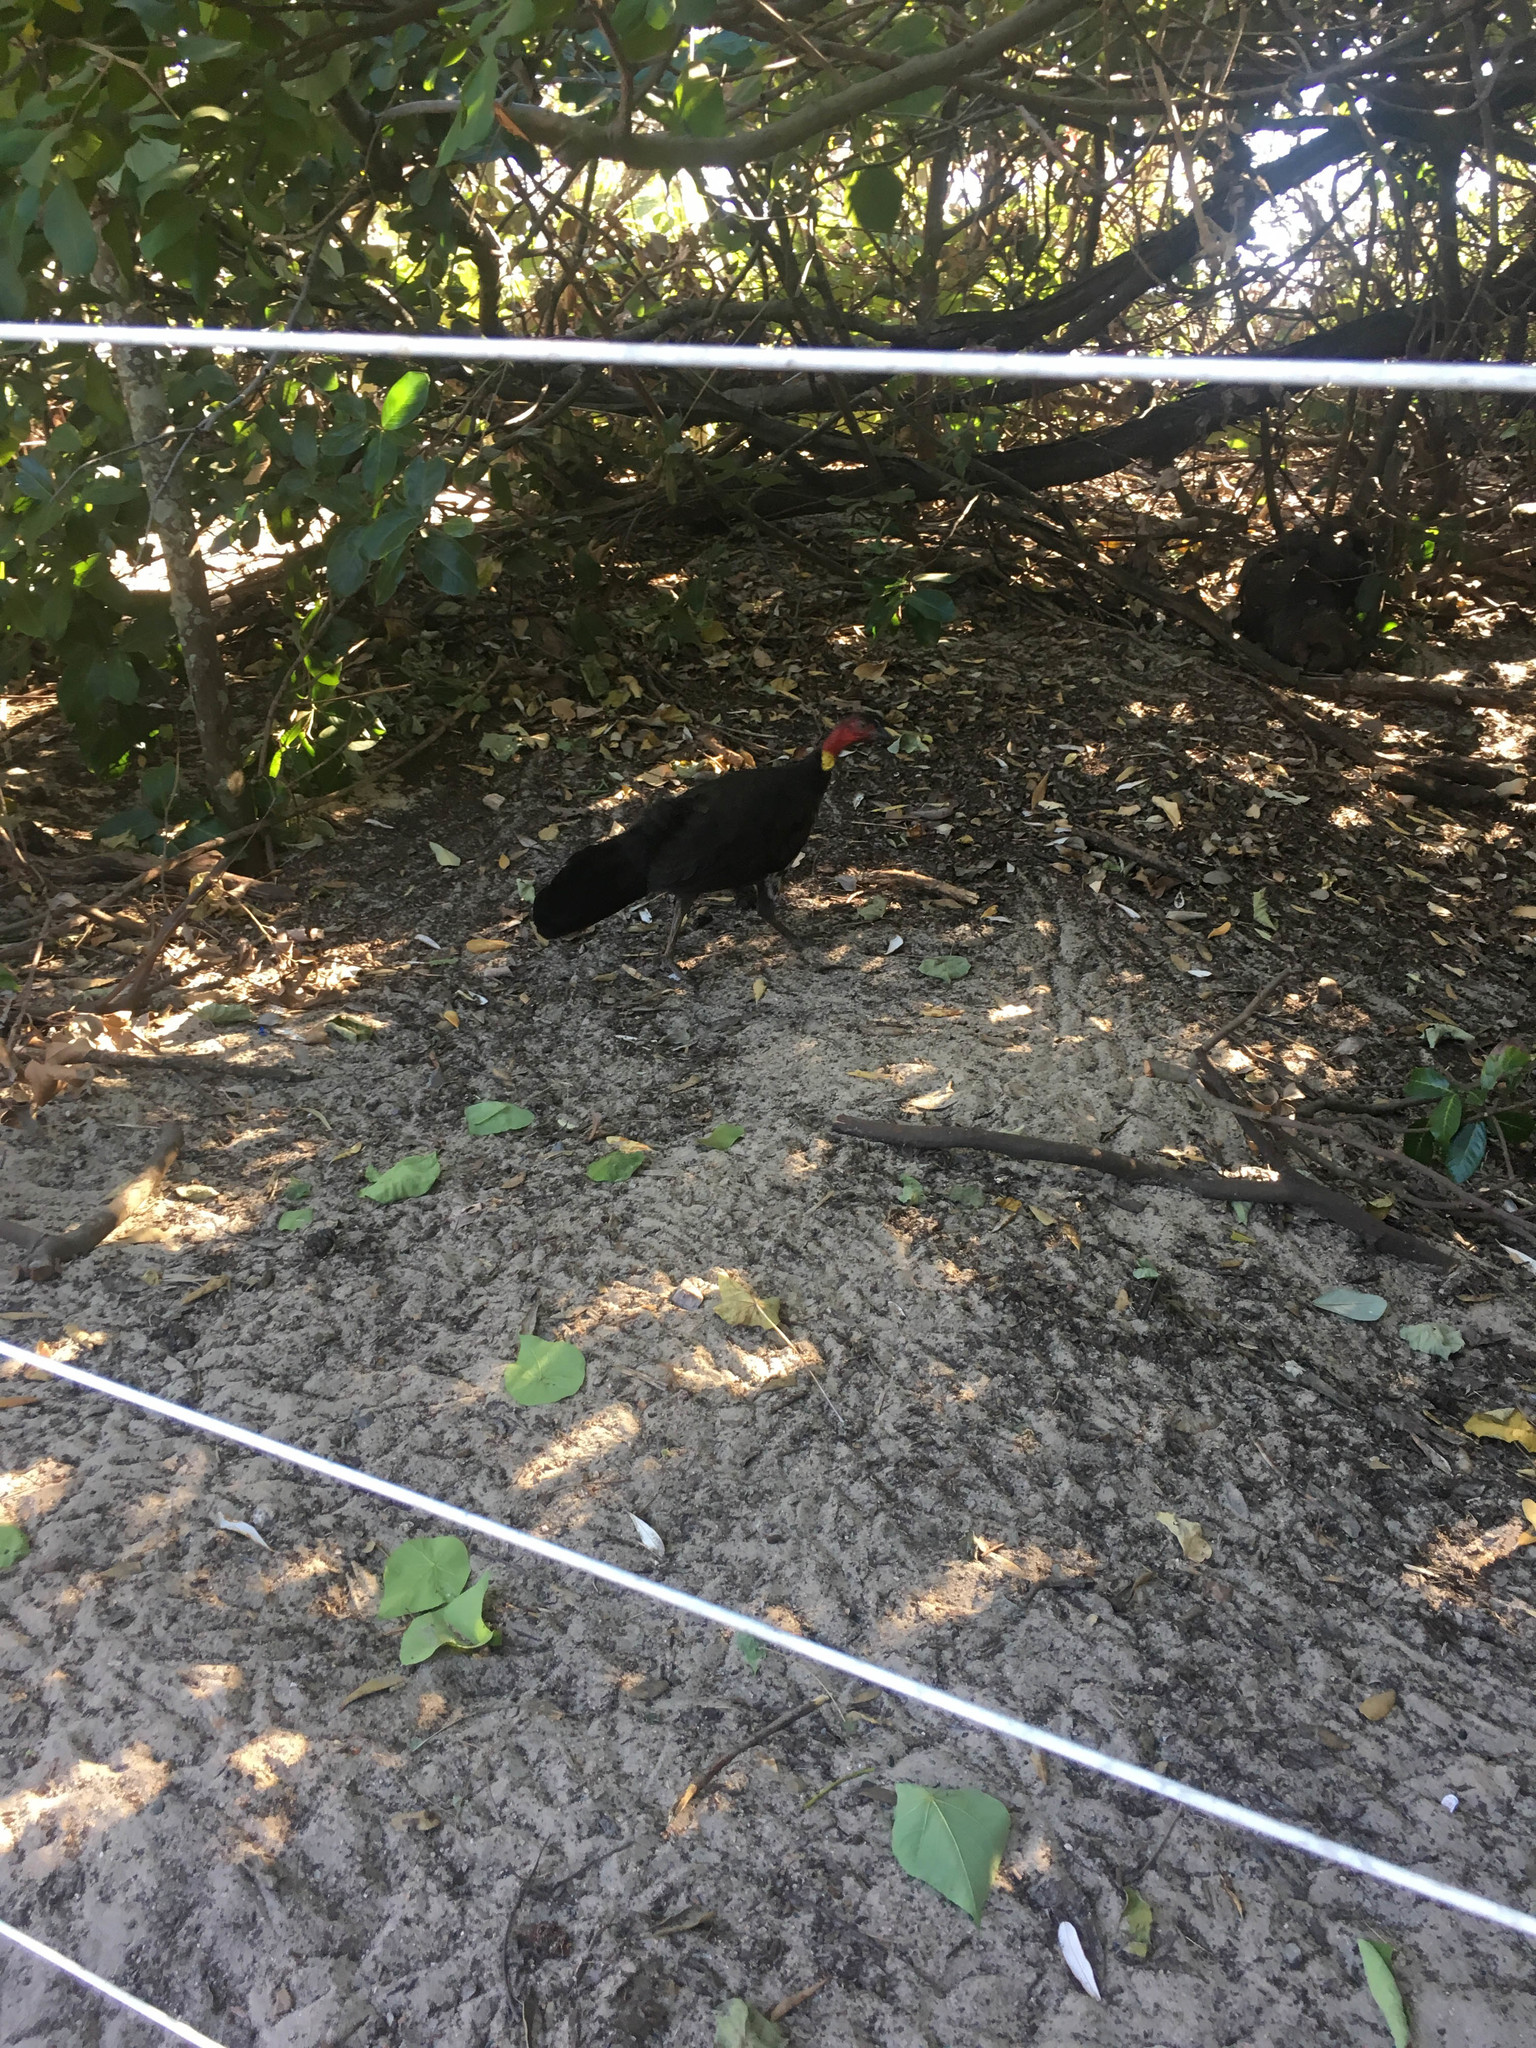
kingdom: Animalia
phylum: Chordata
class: Aves
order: Galliformes
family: Megapodiidae
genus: Alectura
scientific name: Alectura lathami
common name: Australian brushturkey
